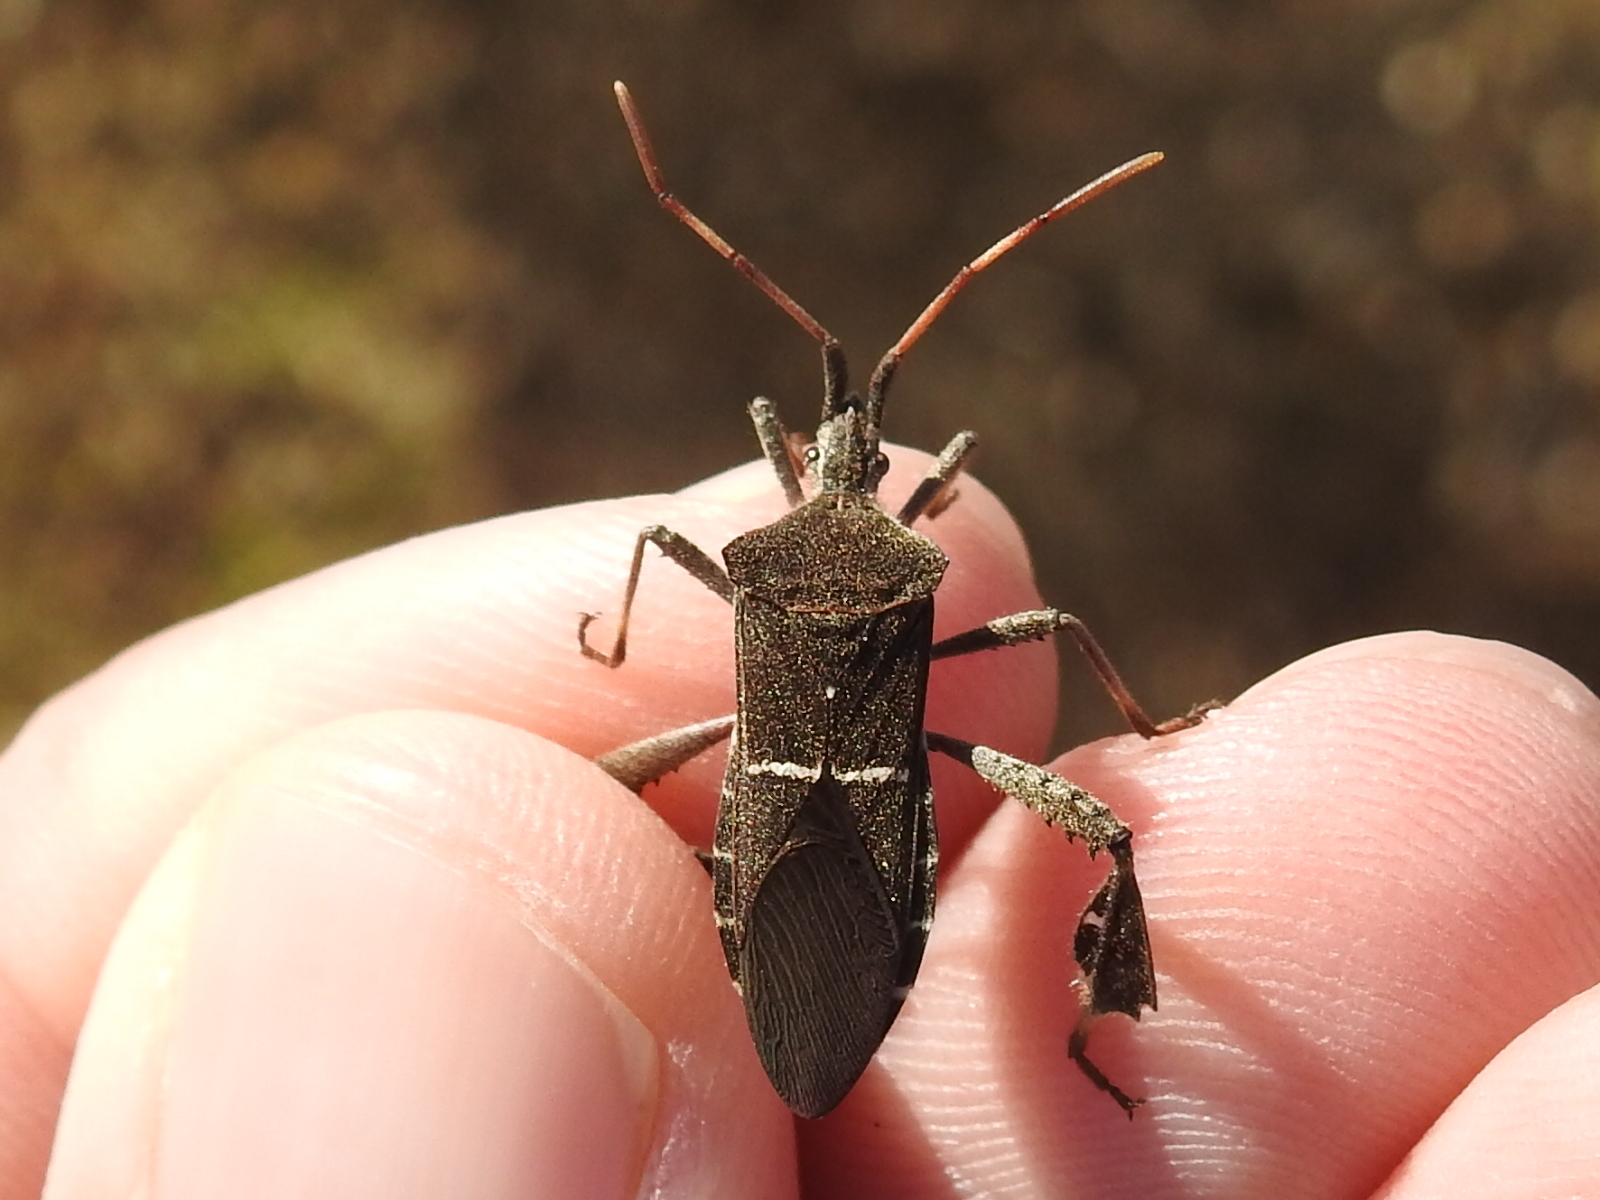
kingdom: Animalia
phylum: Arthropoda
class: Insecta
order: Hemiptera
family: Coreidae
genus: Leptoglossus
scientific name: Leptoglossus phyllopus
